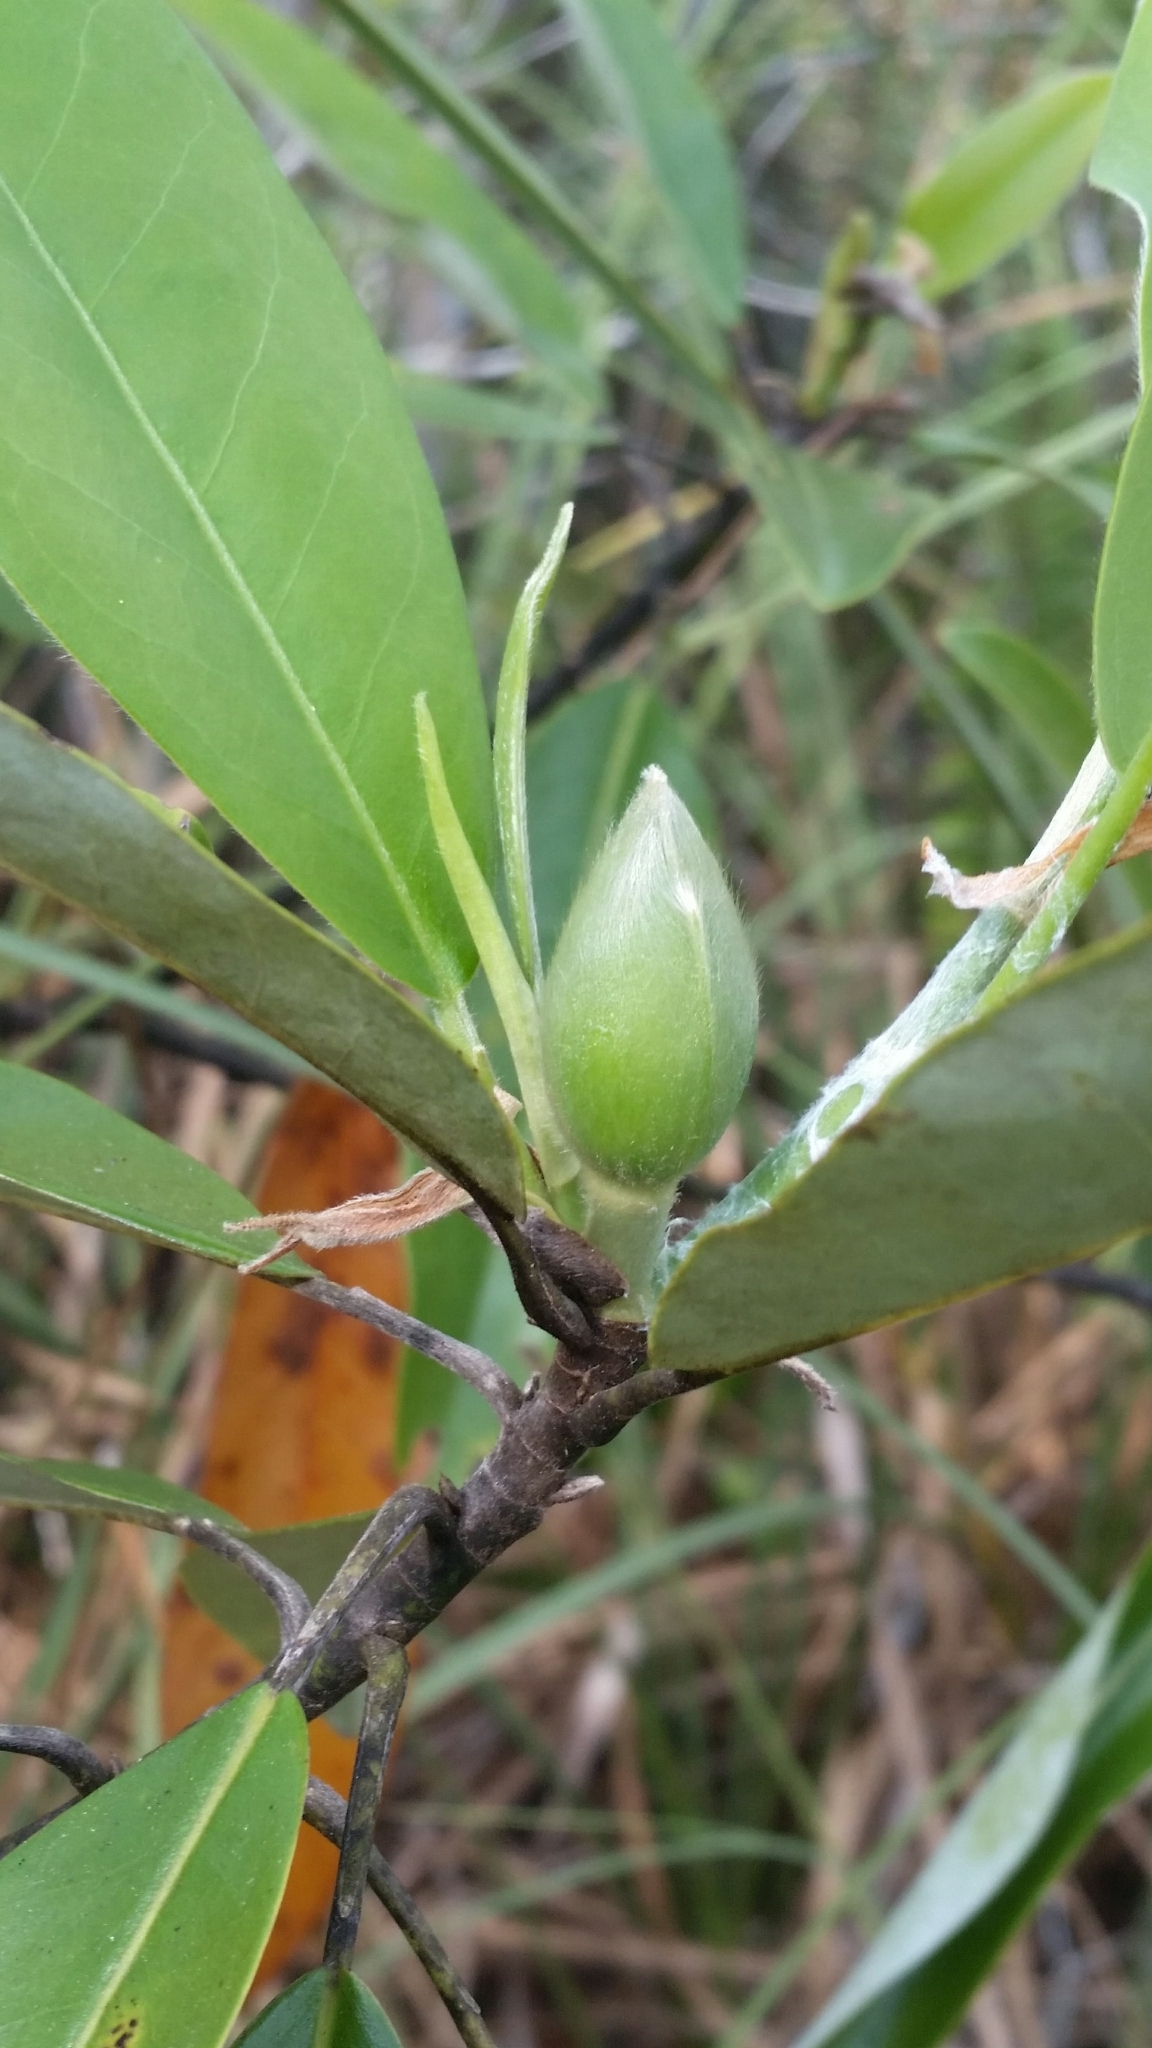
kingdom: Plantae
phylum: Tracheophyta
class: Magnoliopsida
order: Magnoliales
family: Magnoliaceae
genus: Magnolia
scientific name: Magnolia virginiana
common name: Swamp bay
